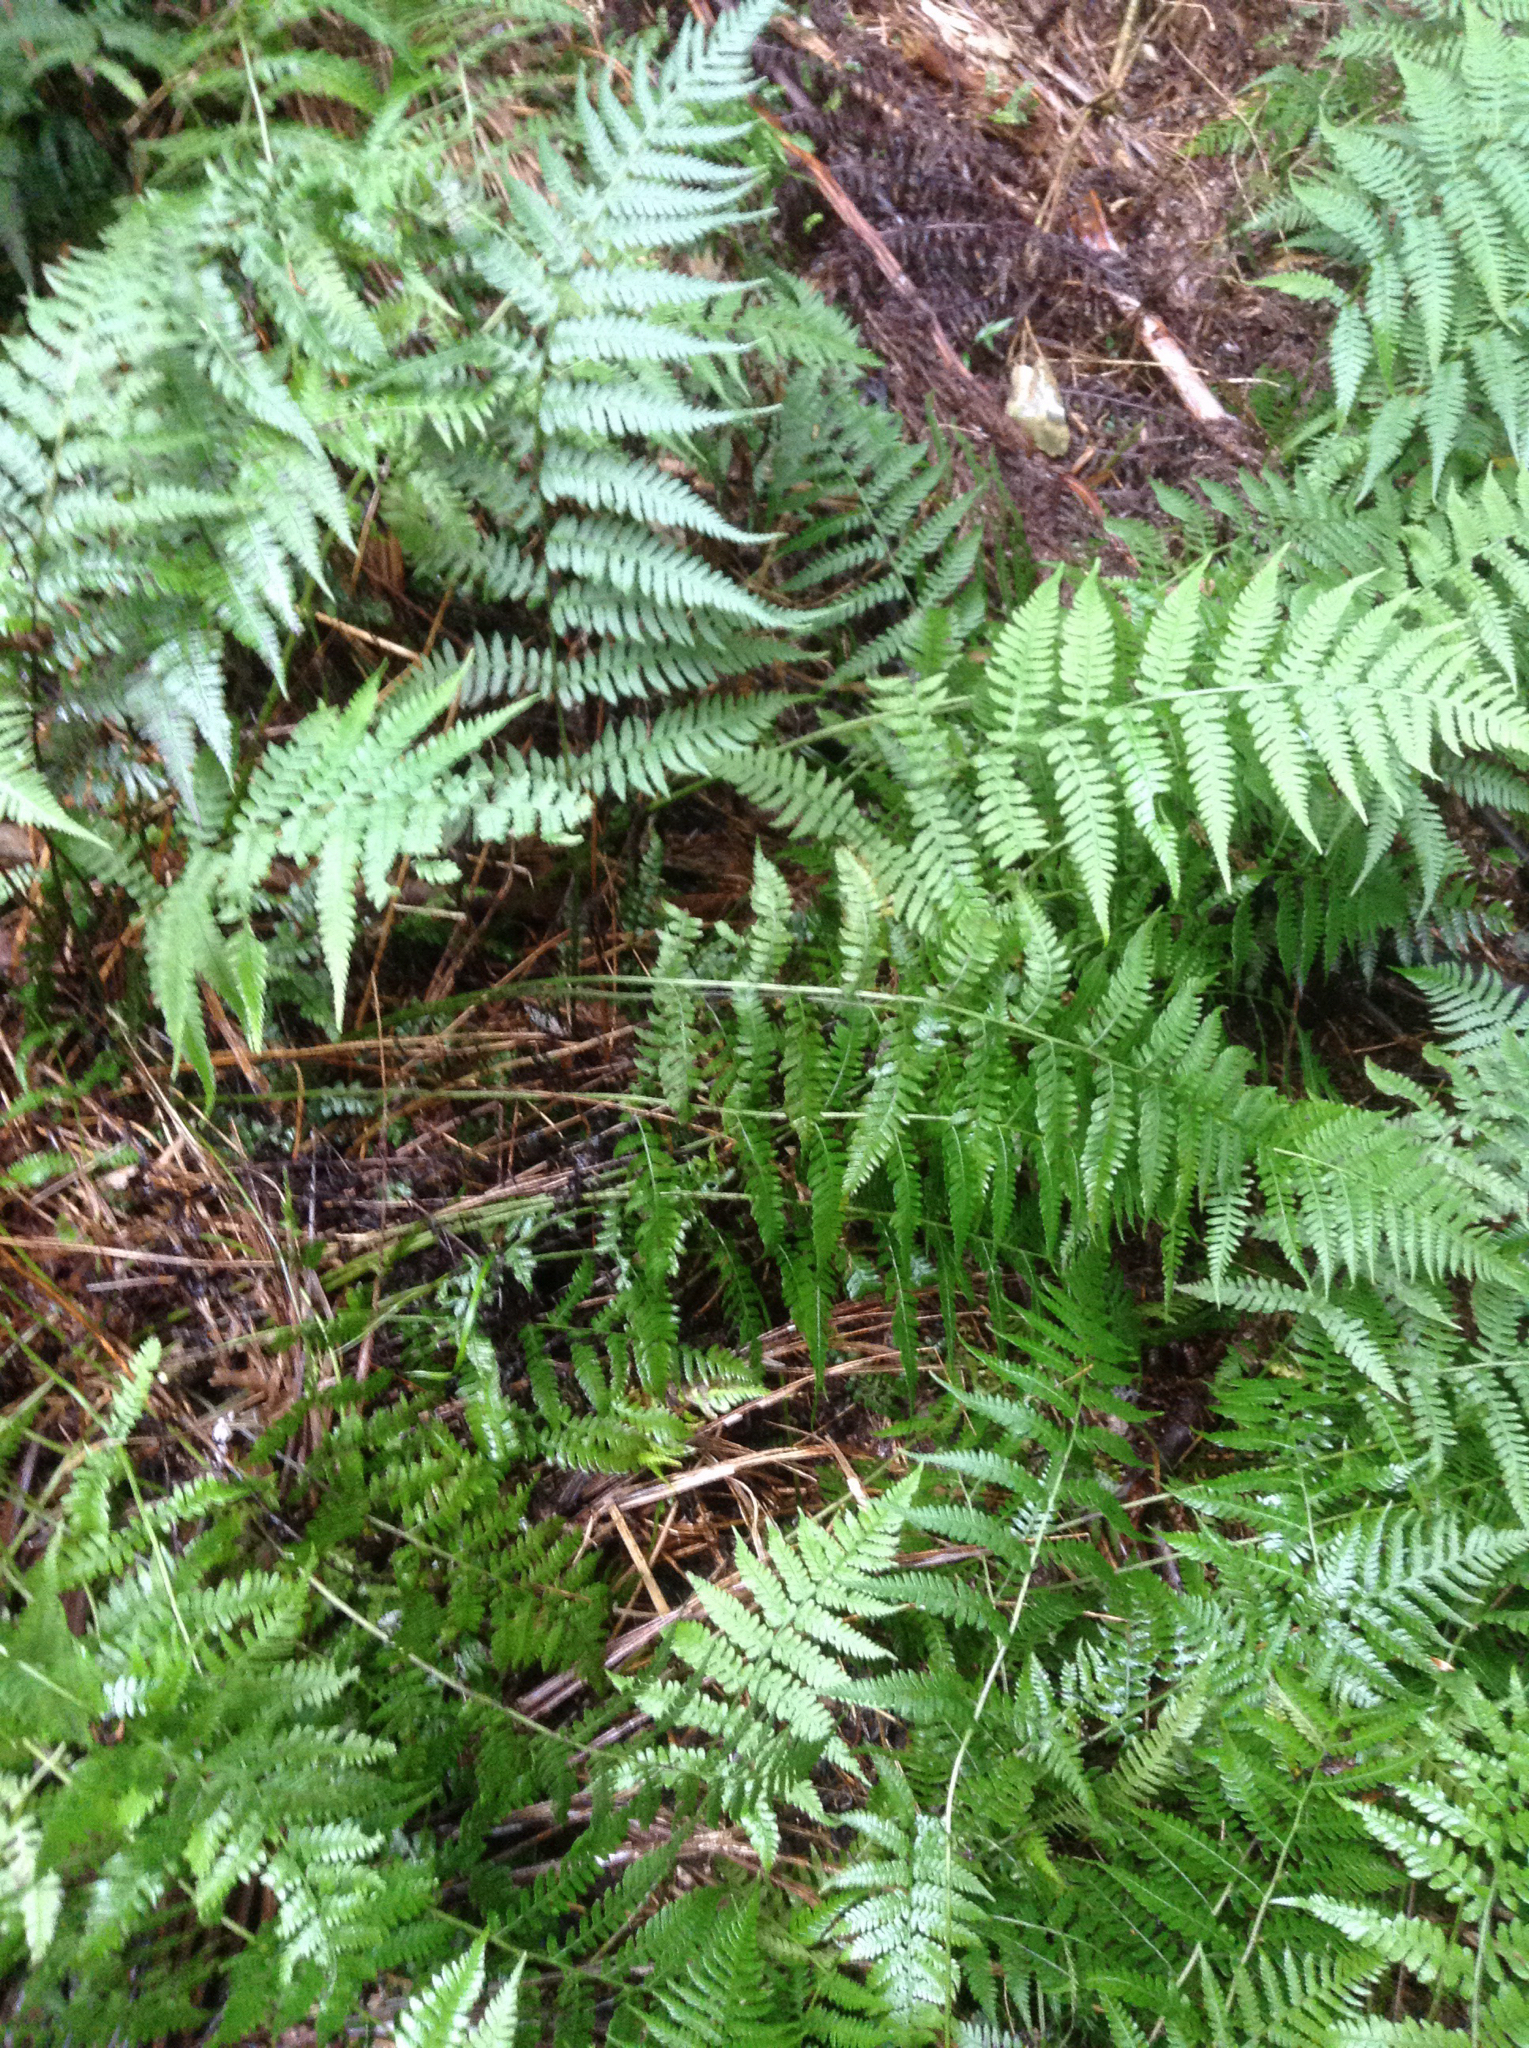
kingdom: Plantae
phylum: Tracheophyta
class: Polypodiopsida
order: Polypodiales
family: Athyriaceae
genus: Deparia
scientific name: Deparia petersenii
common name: Japanese false spleenwort
